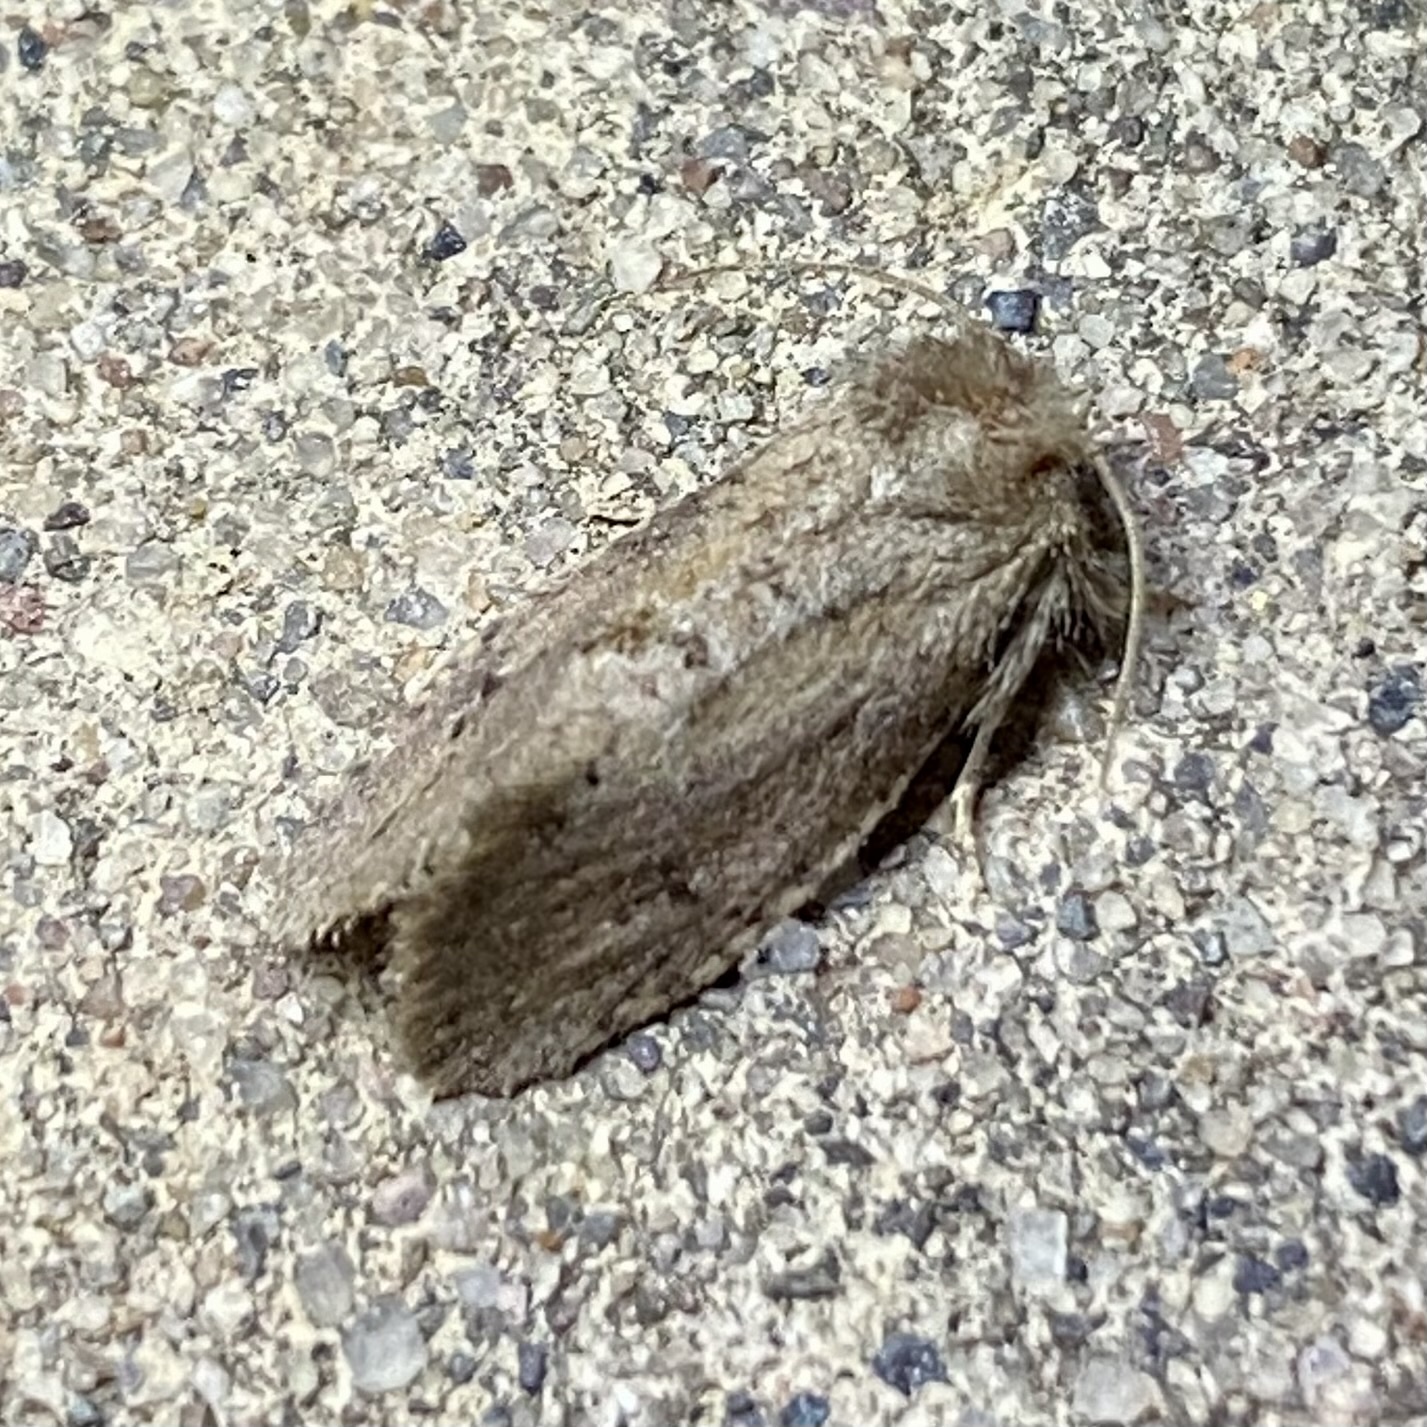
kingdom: Animalia
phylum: Arthropoda
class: Insecta
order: Lepidoptera
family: Tineidae
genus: Acrolophus
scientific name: Acrolophus
